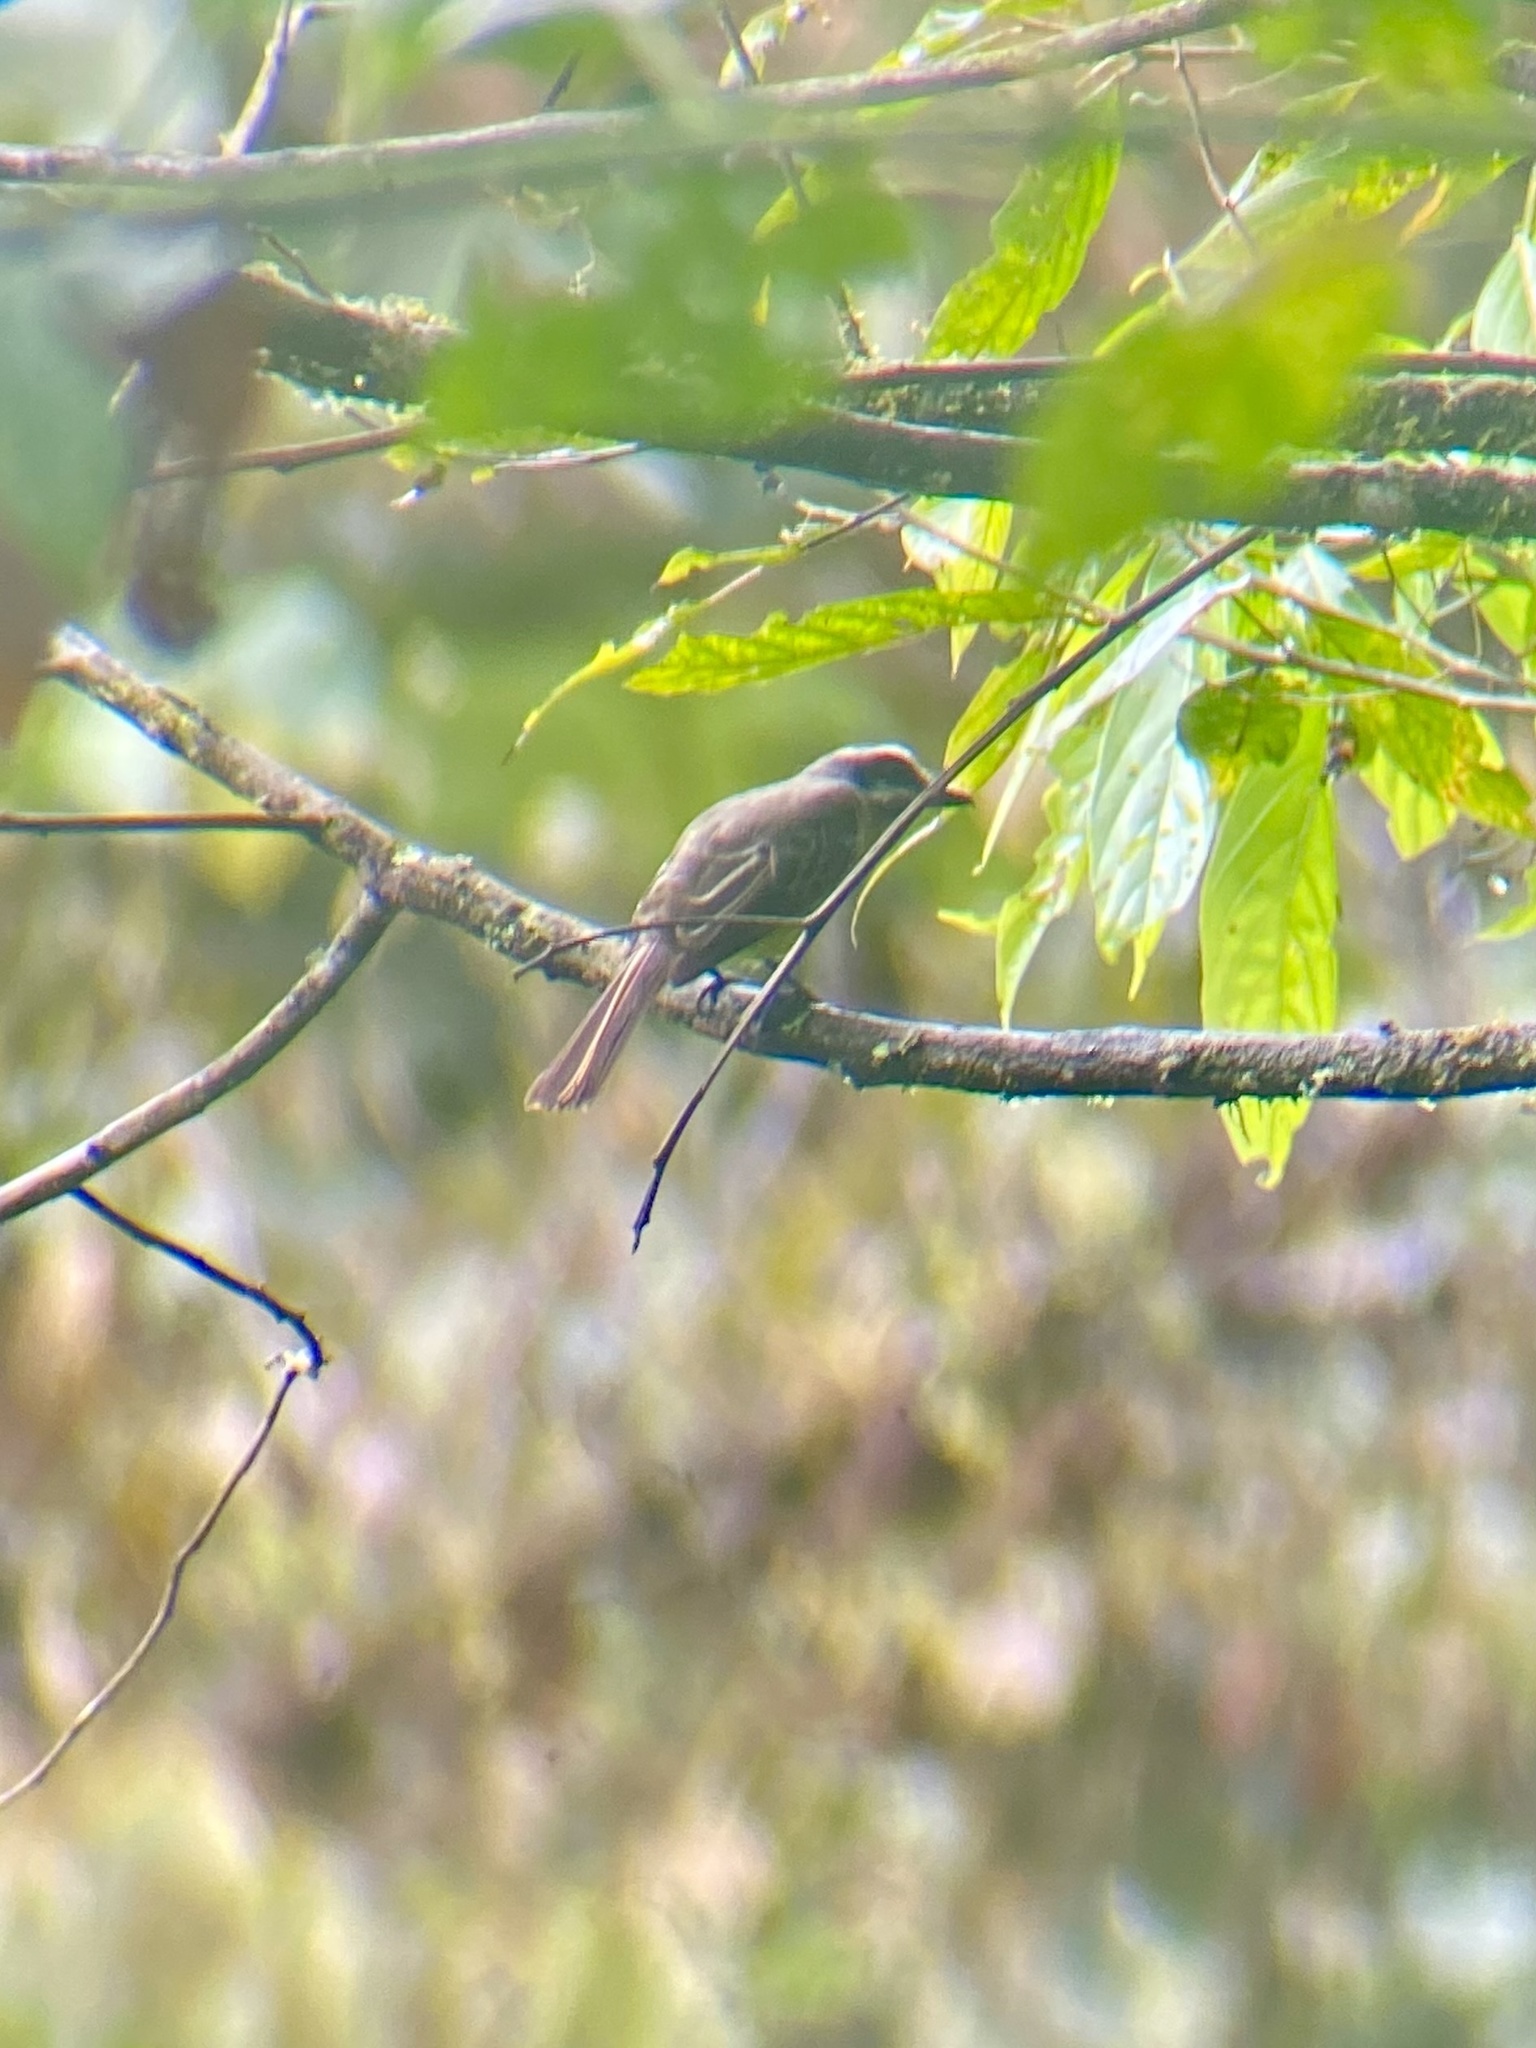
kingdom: Animalia
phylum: Chordata
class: Aves
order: Passeriformes
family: Tyrannidae
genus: Myiodynastes
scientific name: Myiodynastes hemichrysus
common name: Golden-bellied flycatcher
